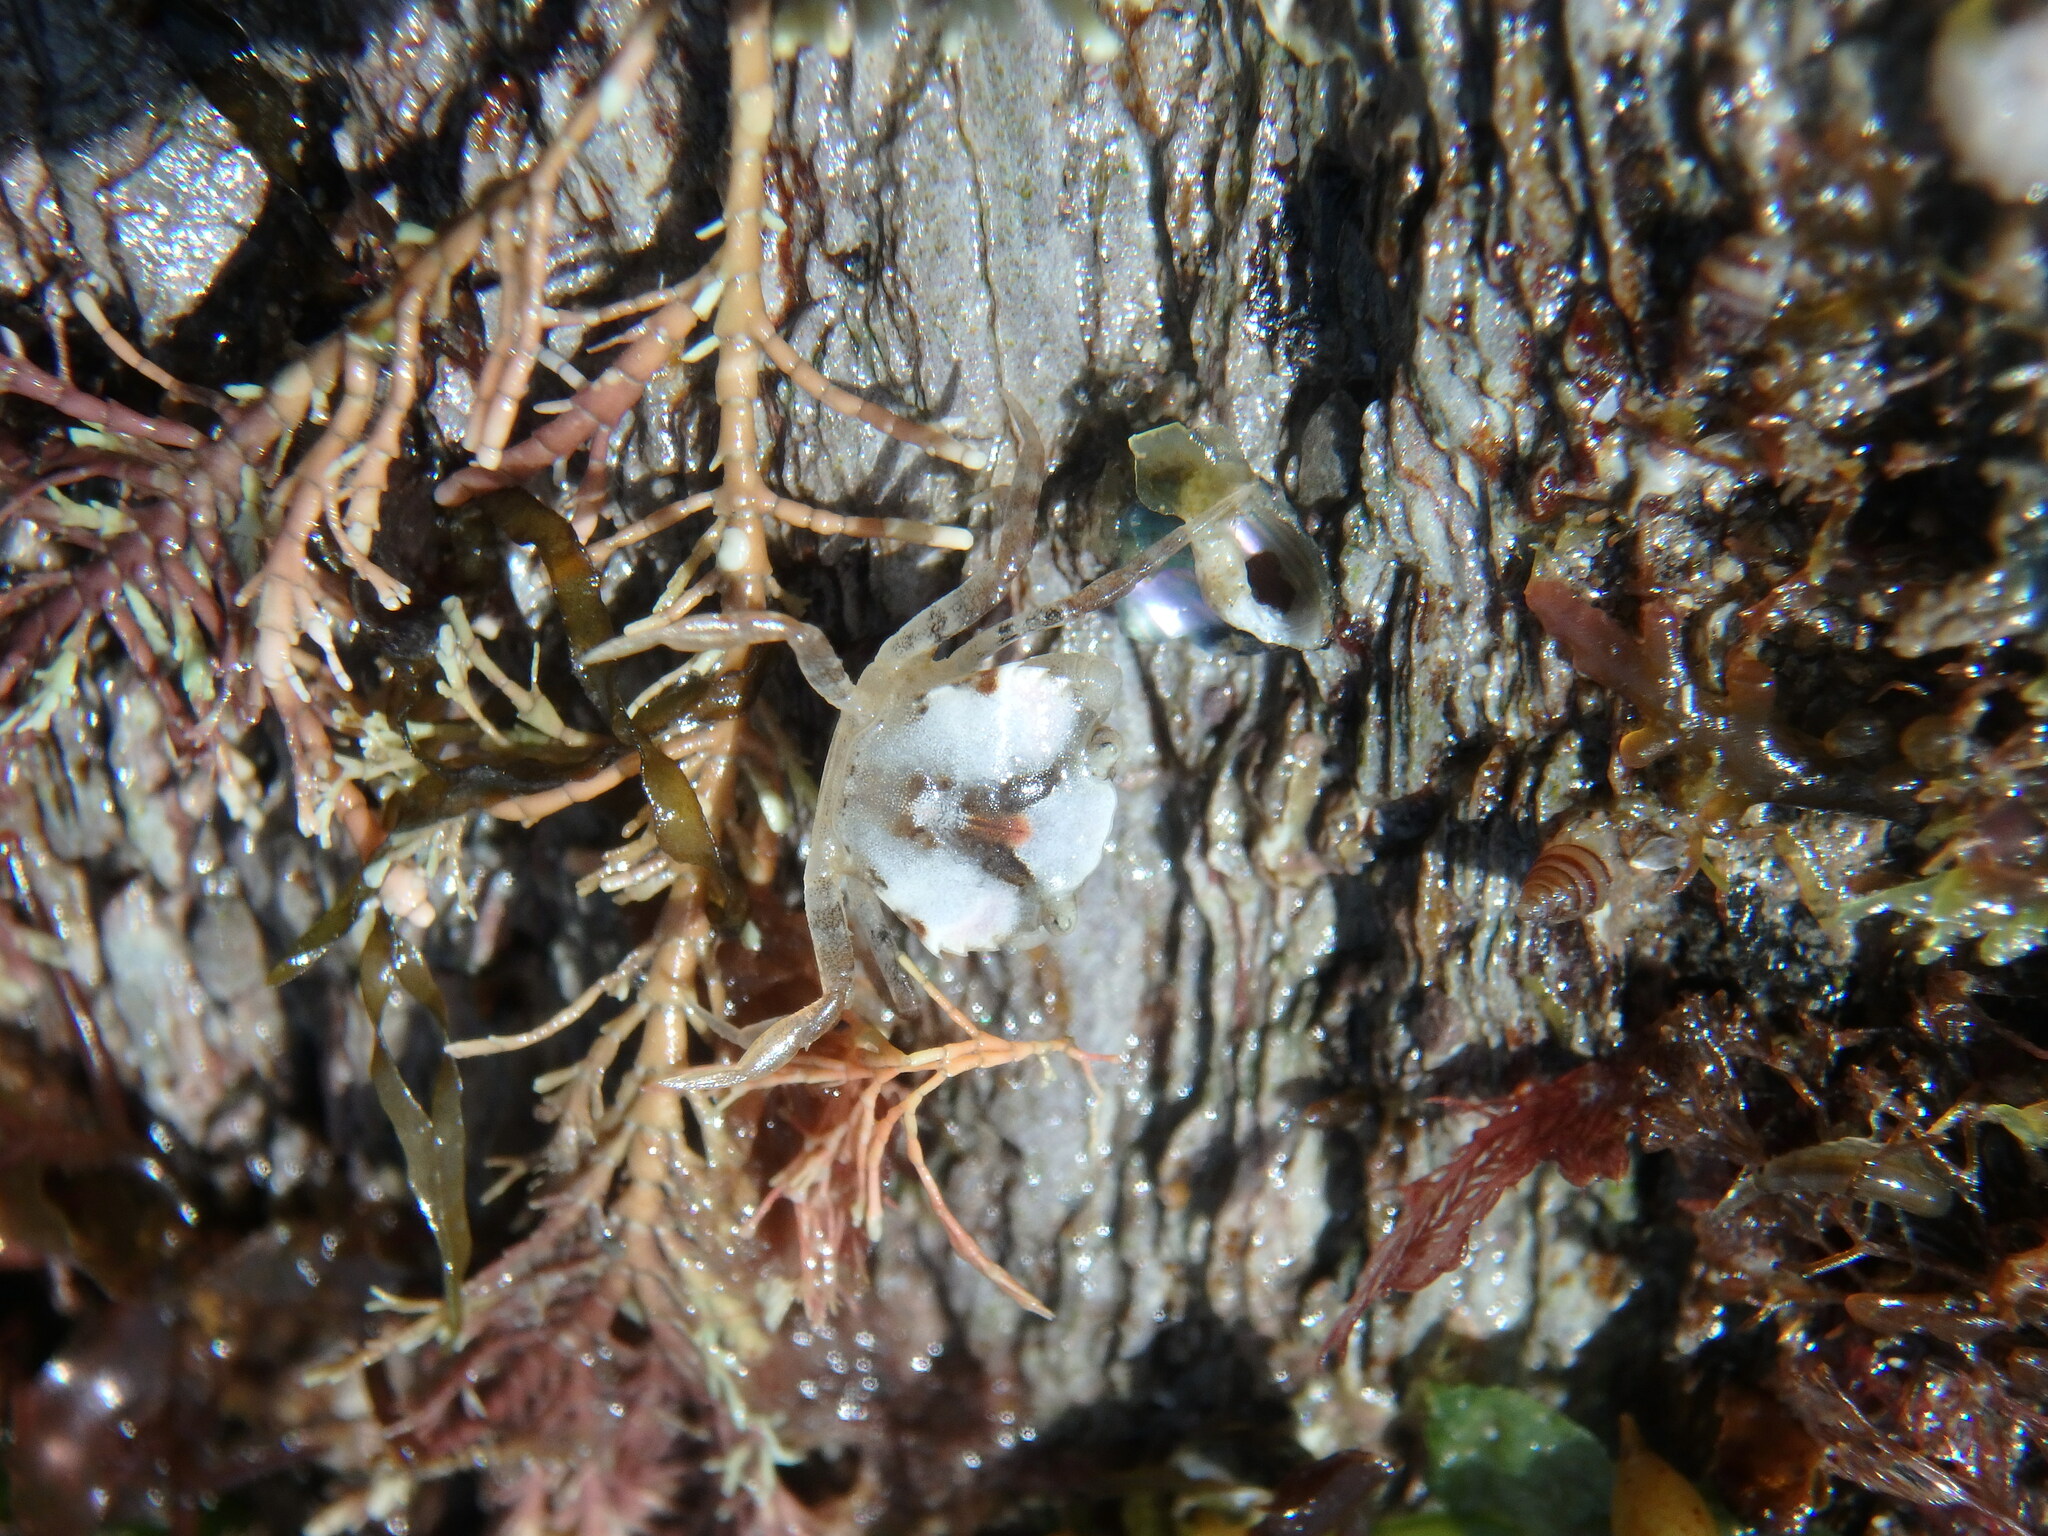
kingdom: Animalia
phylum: Arthropoda
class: Malacostraca
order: Decapoda
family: Carcinidae
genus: Carcinus
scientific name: Carcinus maenas
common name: European green crab
